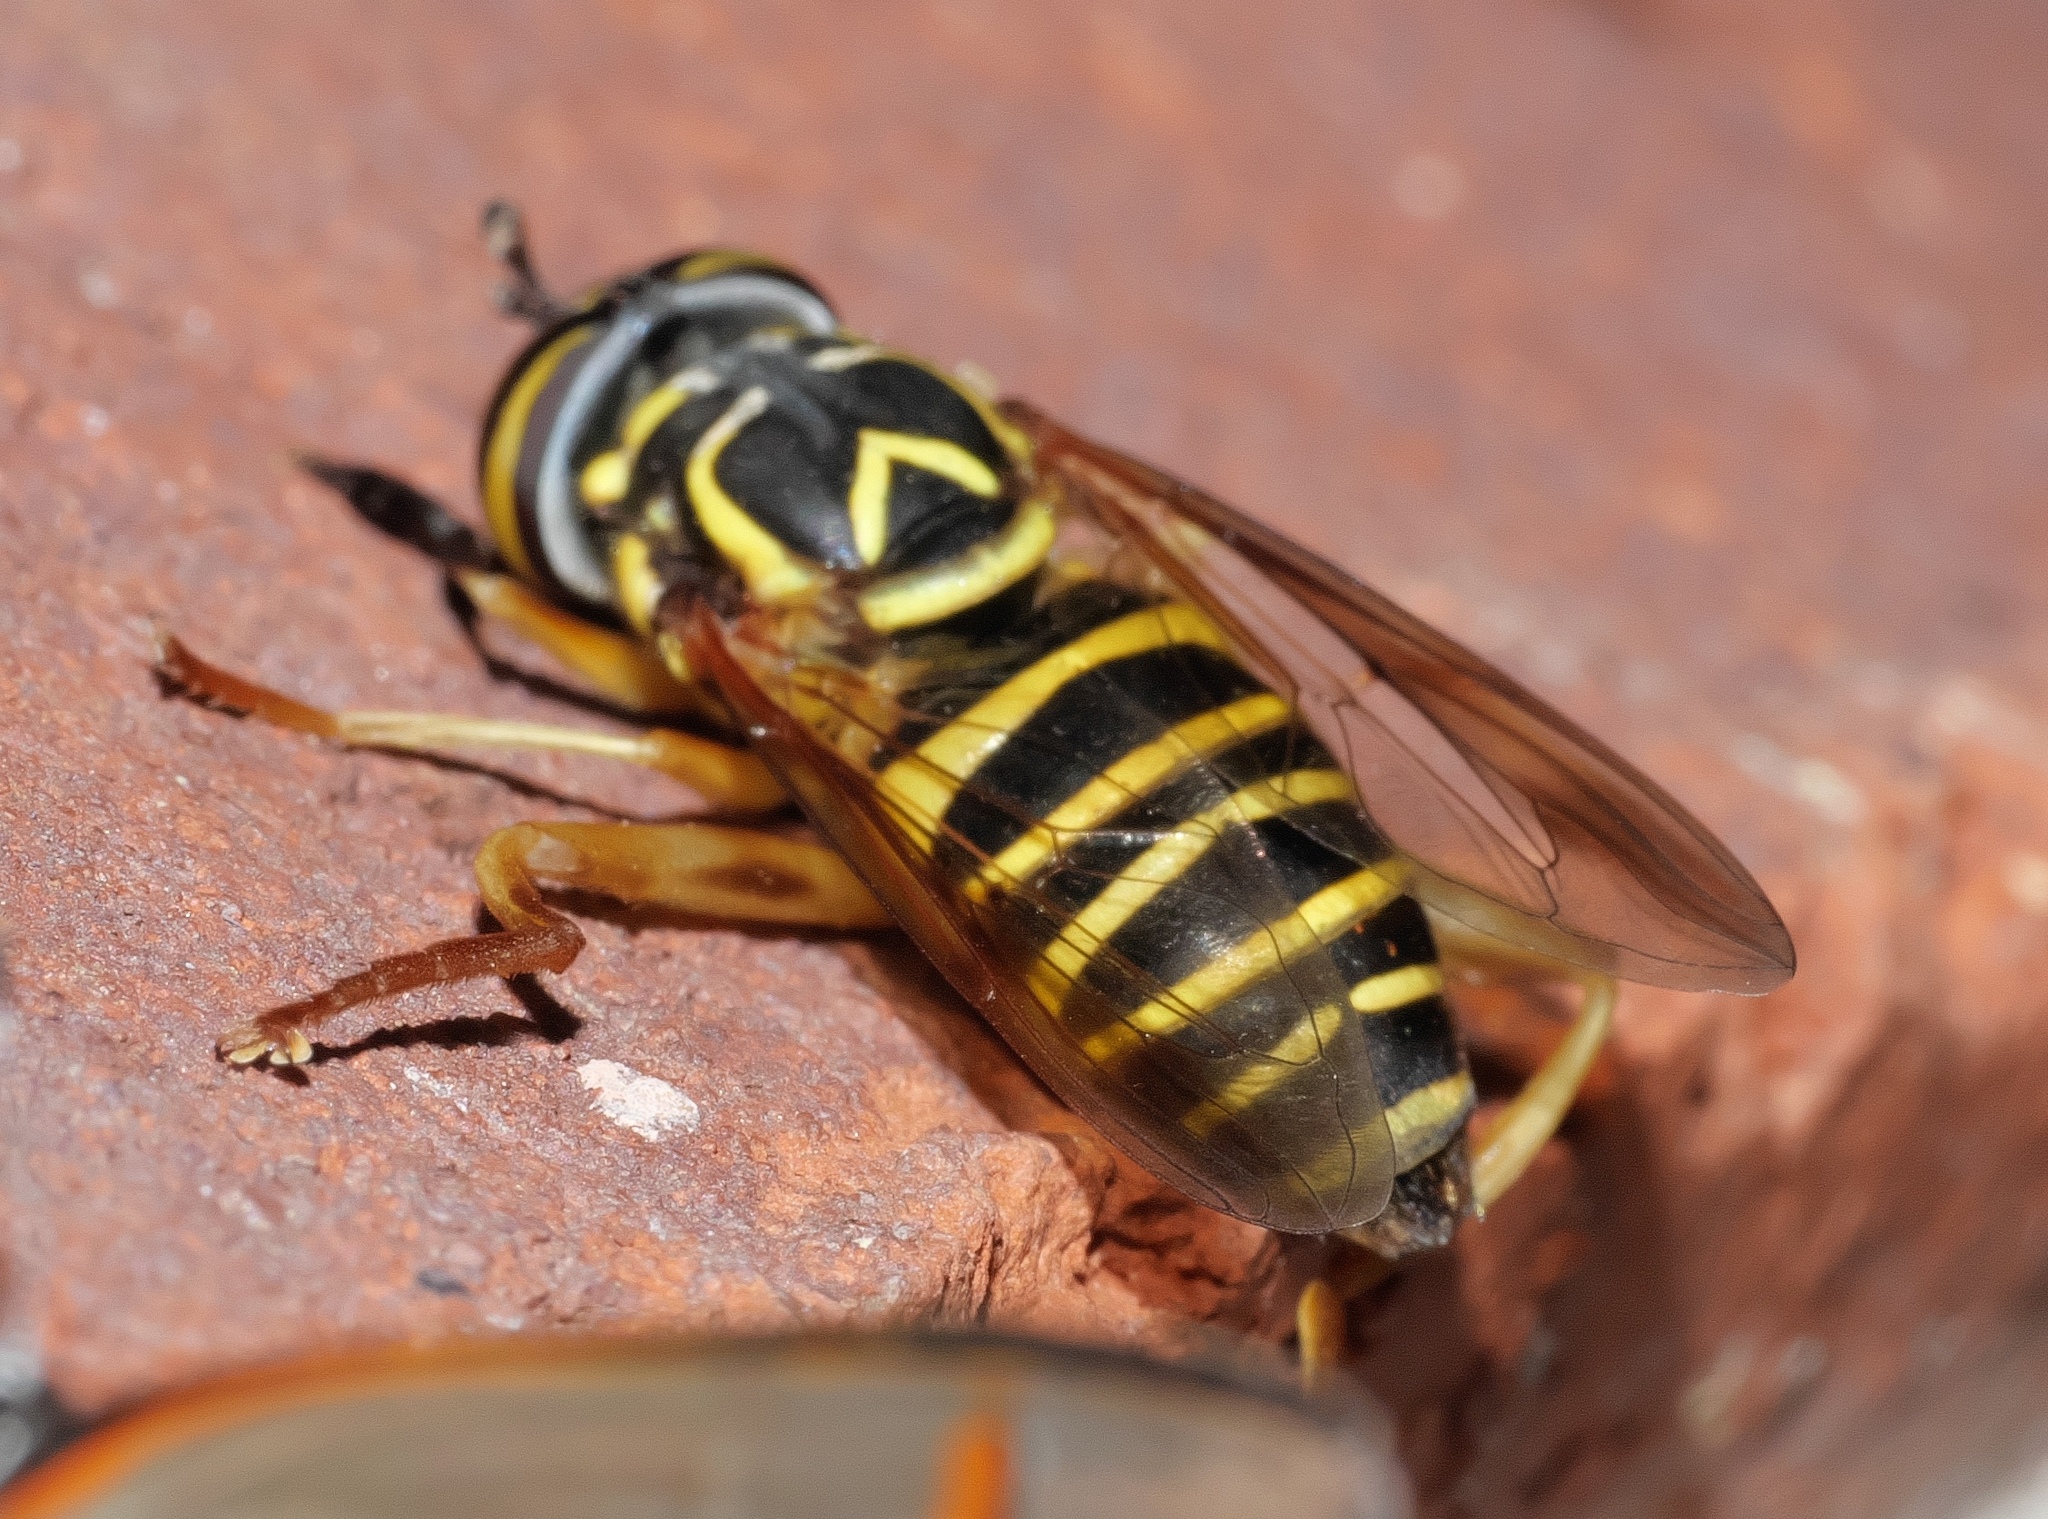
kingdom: Animalia
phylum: Arthropoda
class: Insecta
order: Diptera
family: Syrphidae
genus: Spilomyia
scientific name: Spilomyia longicornis
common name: Eastern hornet fly
